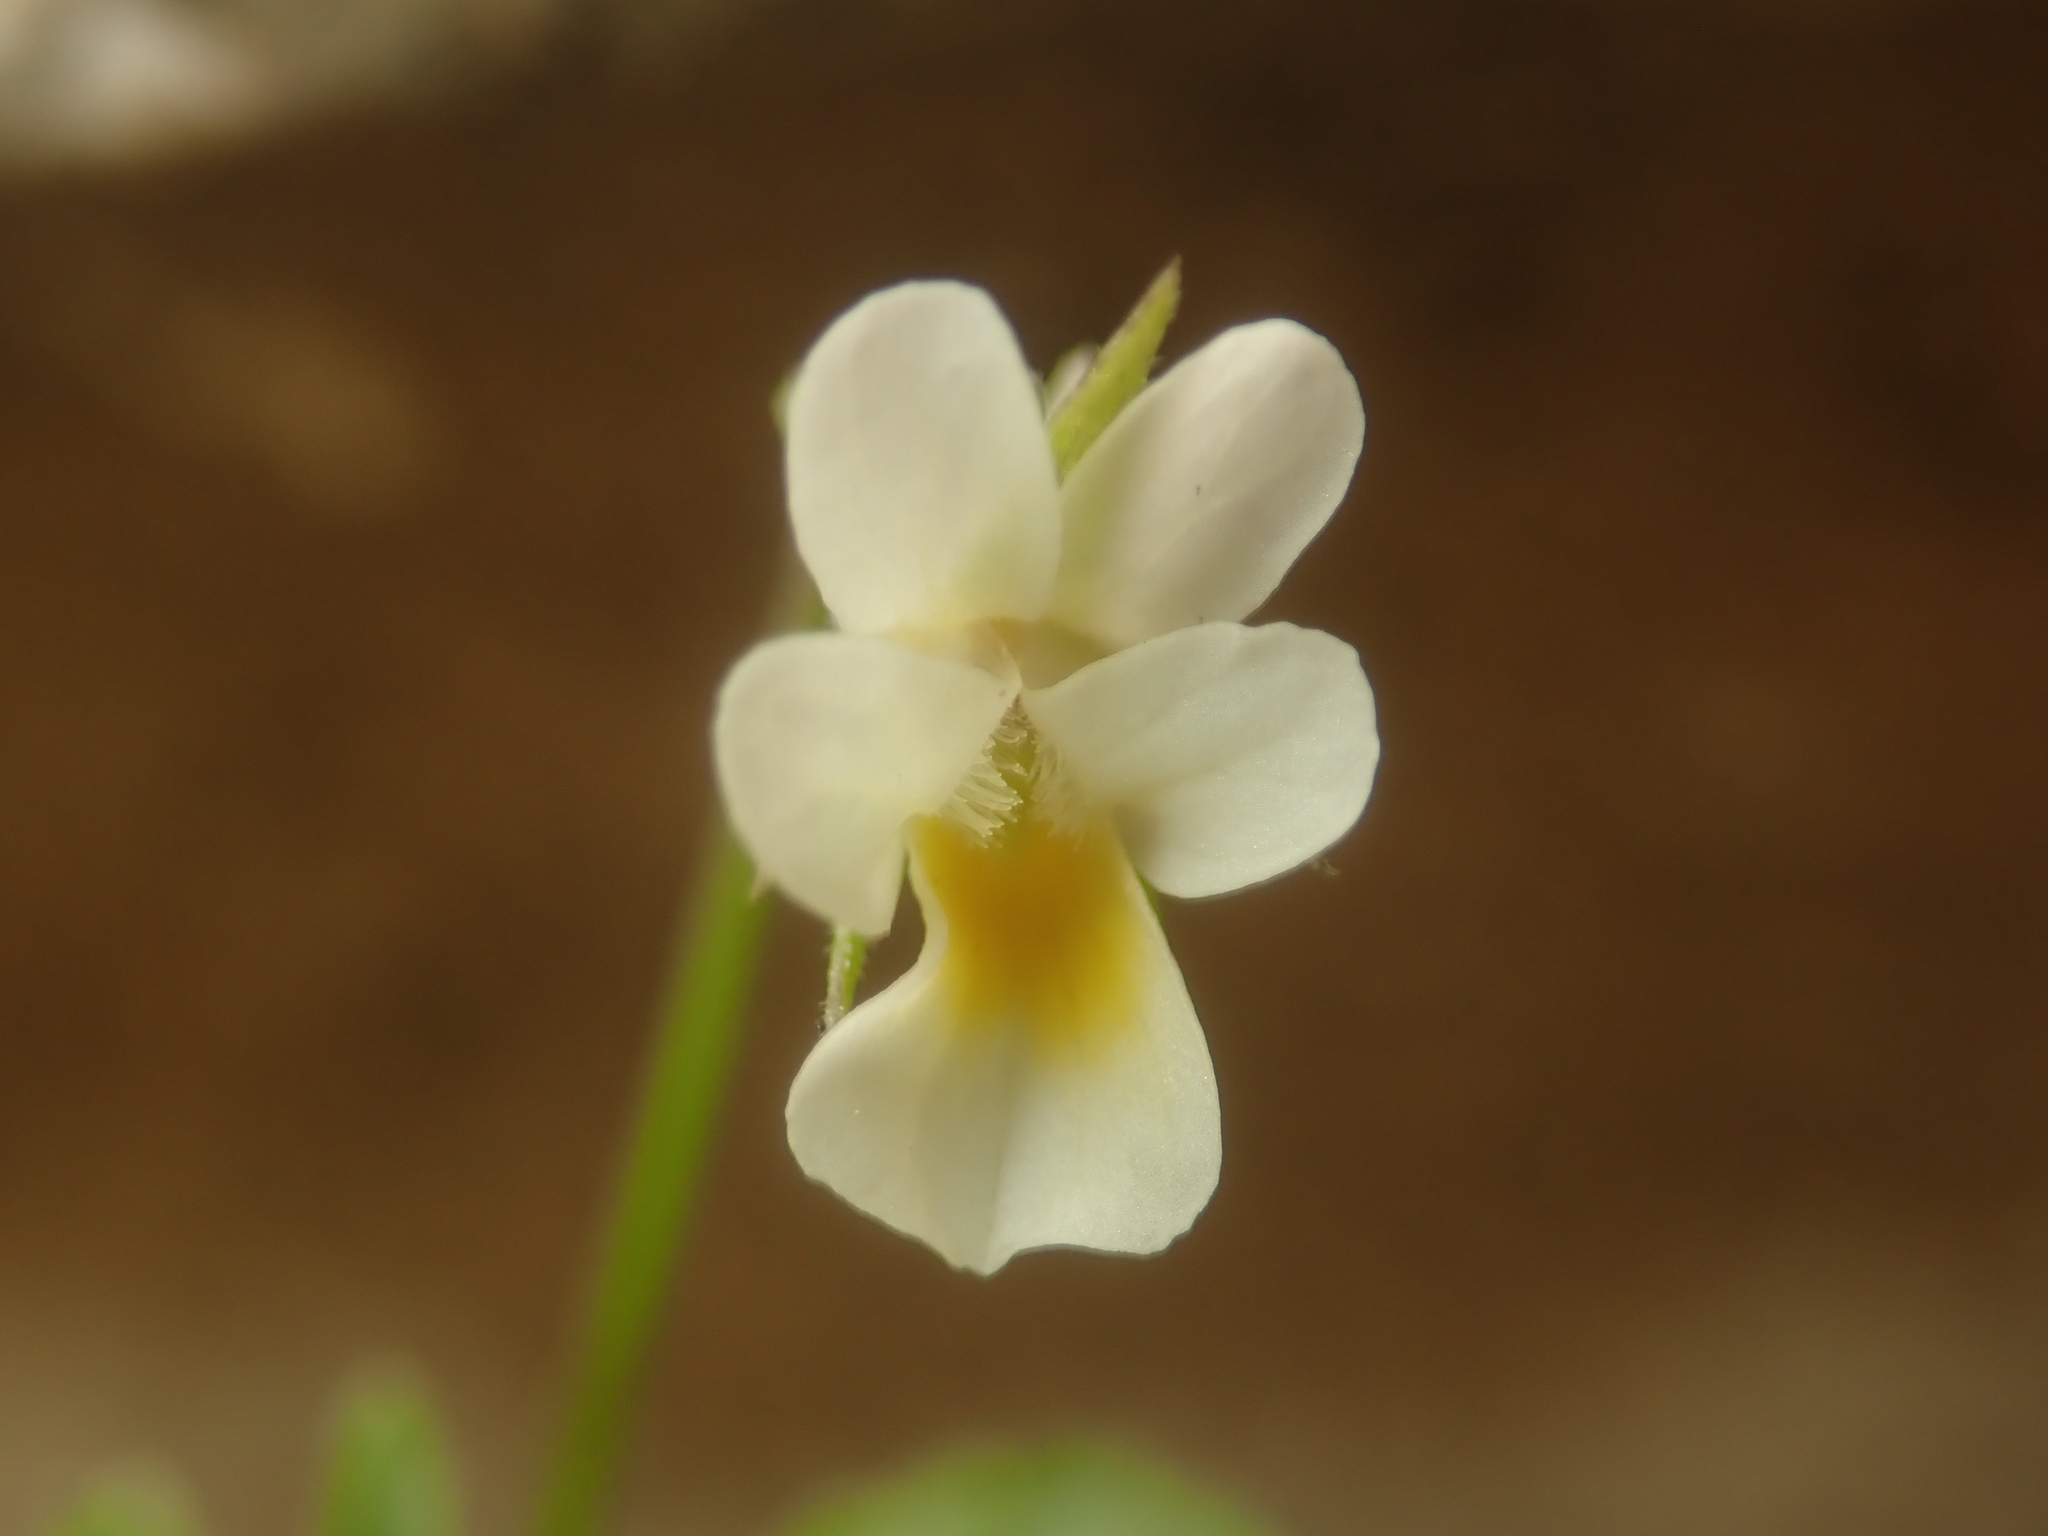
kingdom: Plantae
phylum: Tracheophyta
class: Magnoliopsida
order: Malpighiales
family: Violaceae
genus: Viola
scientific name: Viola arvensis
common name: Field pansy
